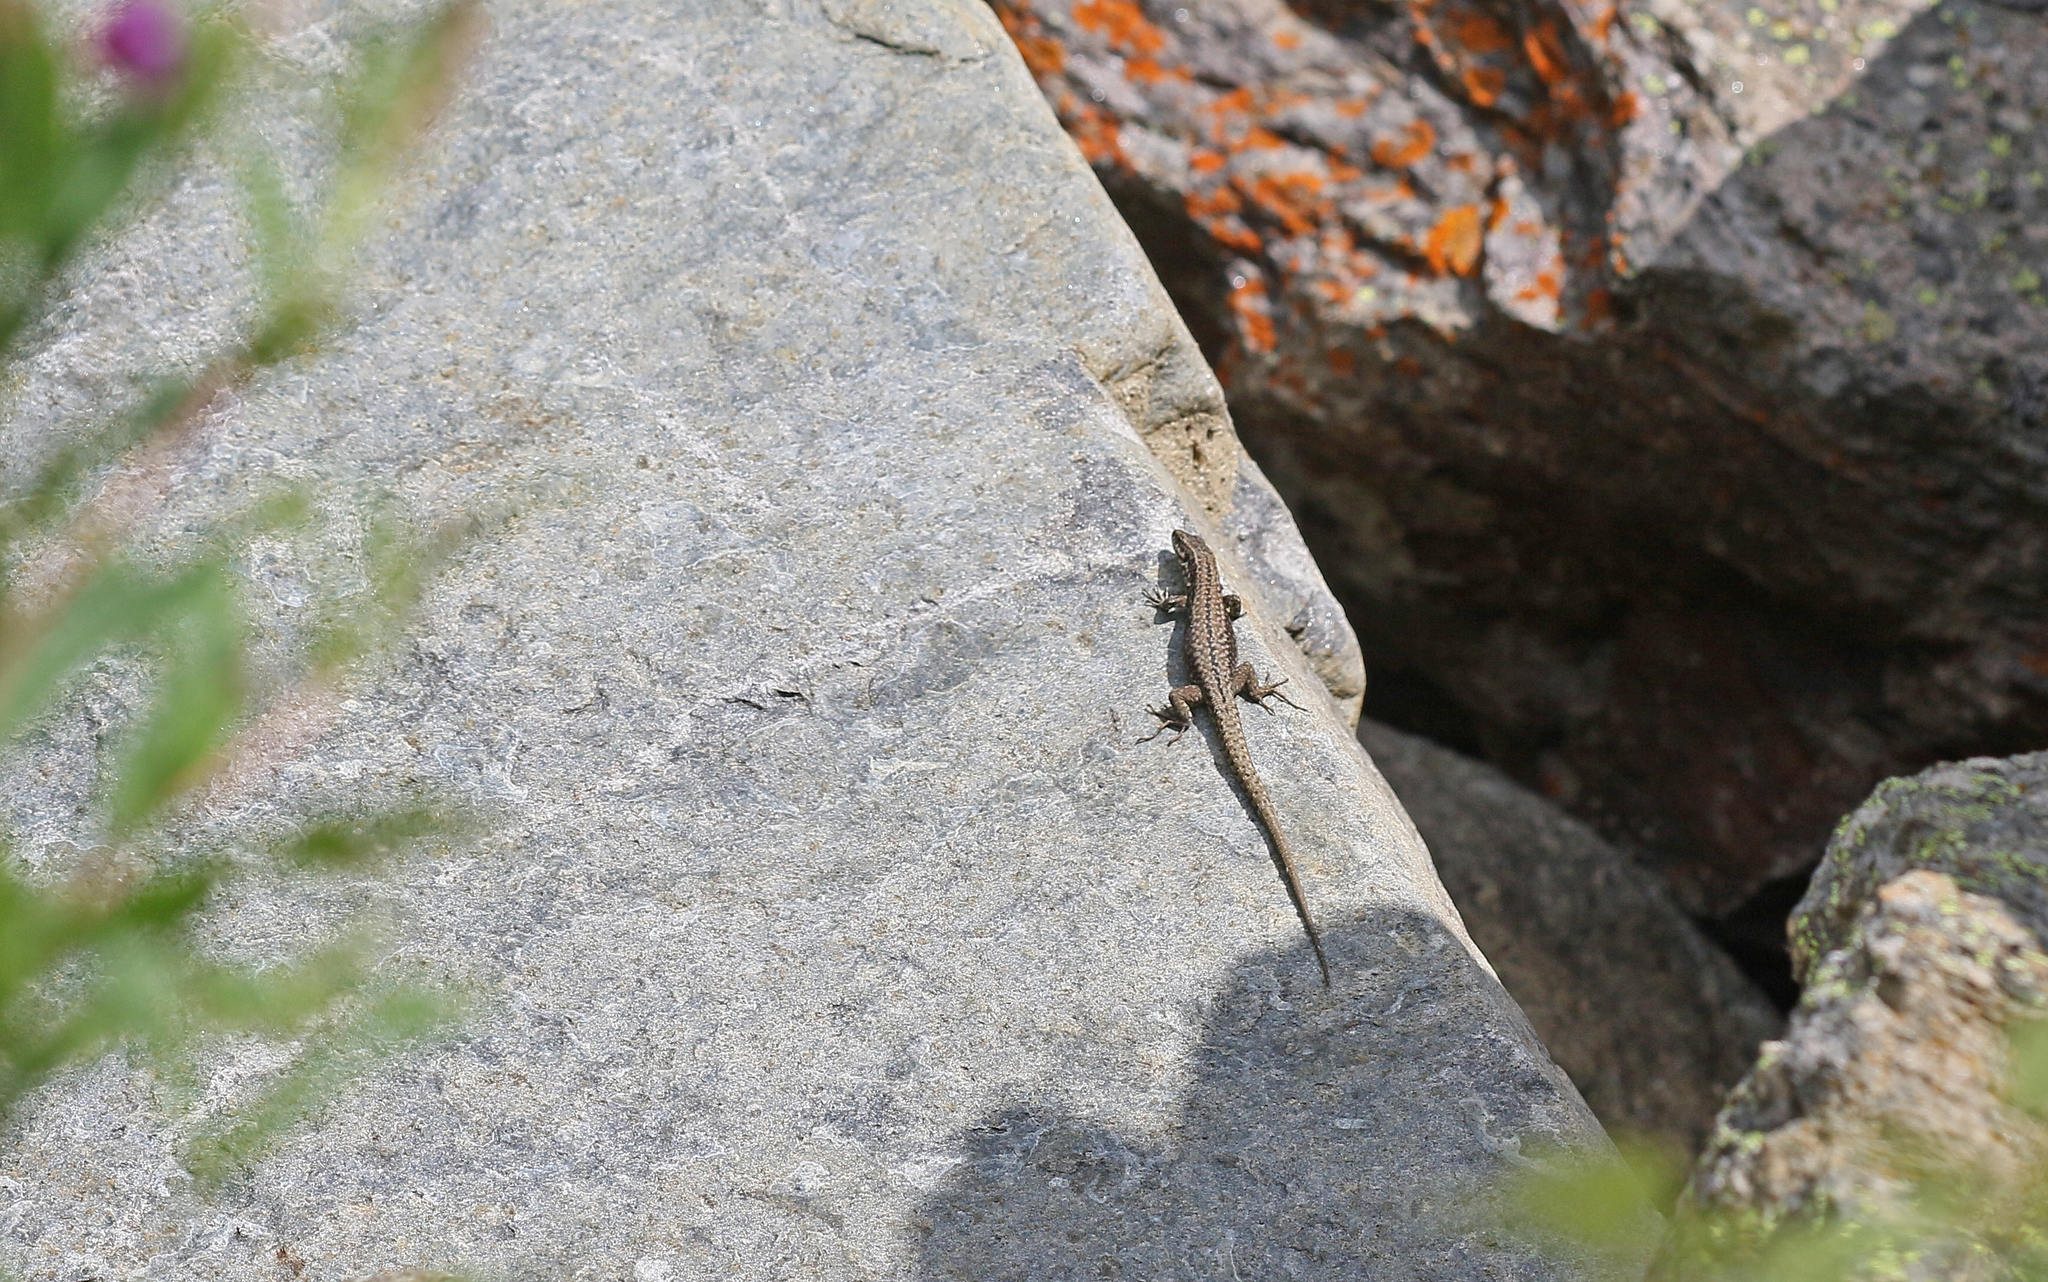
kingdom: Animalia
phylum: Chordata
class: Squamata
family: Lacertidae
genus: Podarcis
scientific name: Podarcis muralis
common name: Common wall lizard
